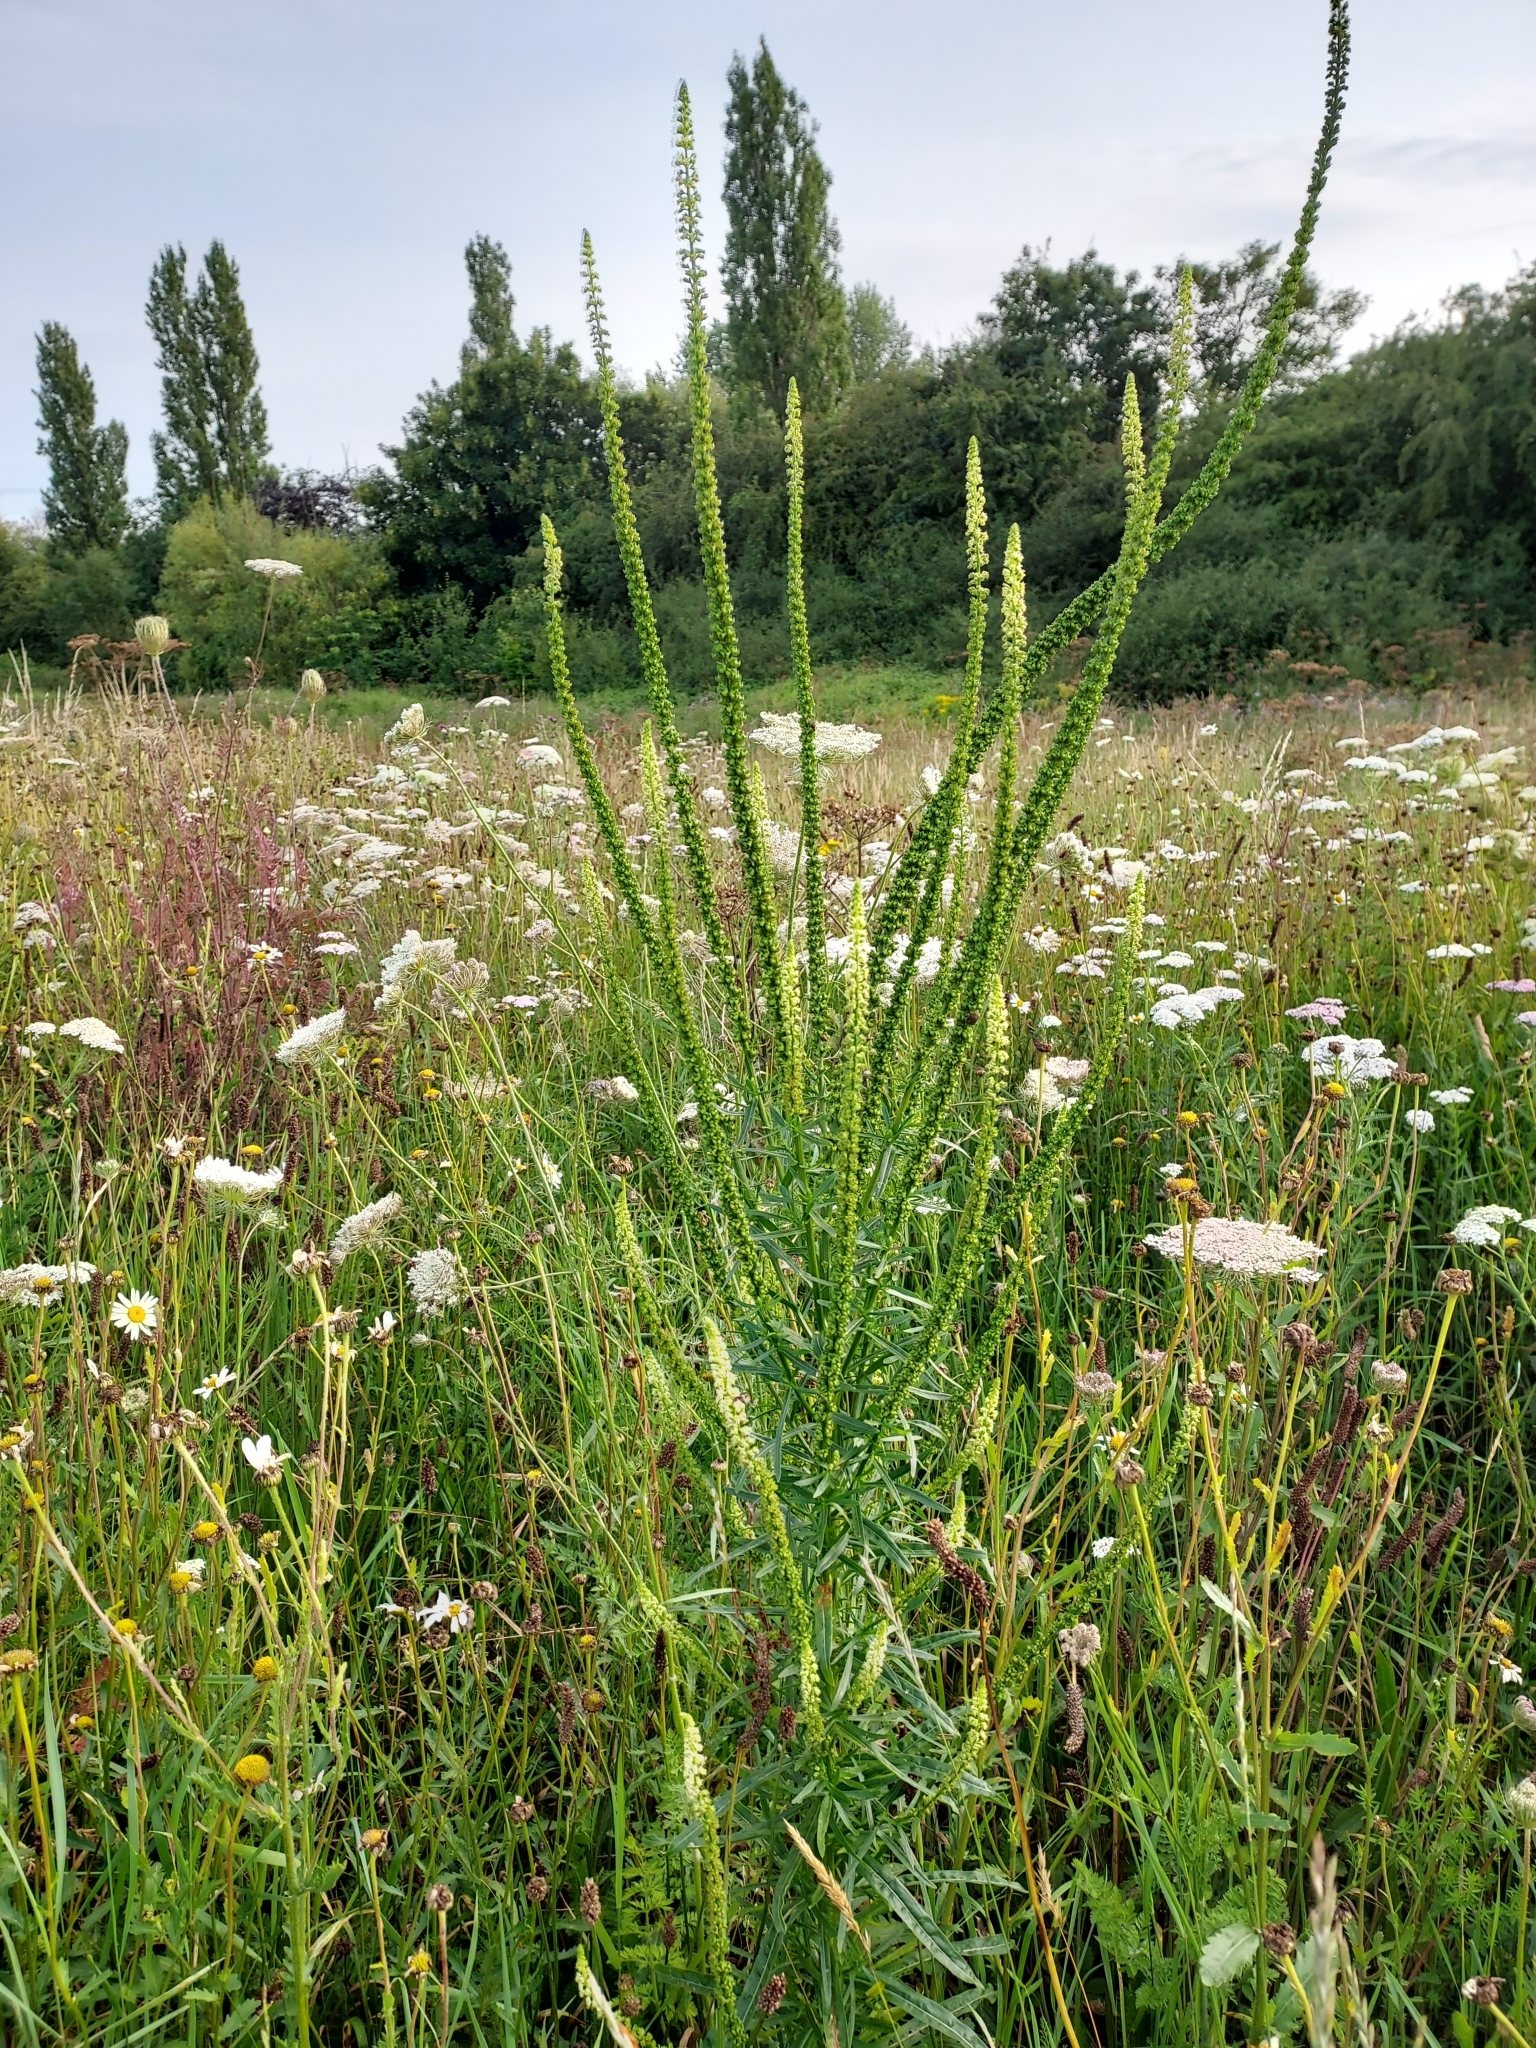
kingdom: Plantae
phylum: Tracheophyta
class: Magnoliopsida
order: Brassicales
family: Resedaceae
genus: Reseda
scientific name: Reseda luteola
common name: Weld
